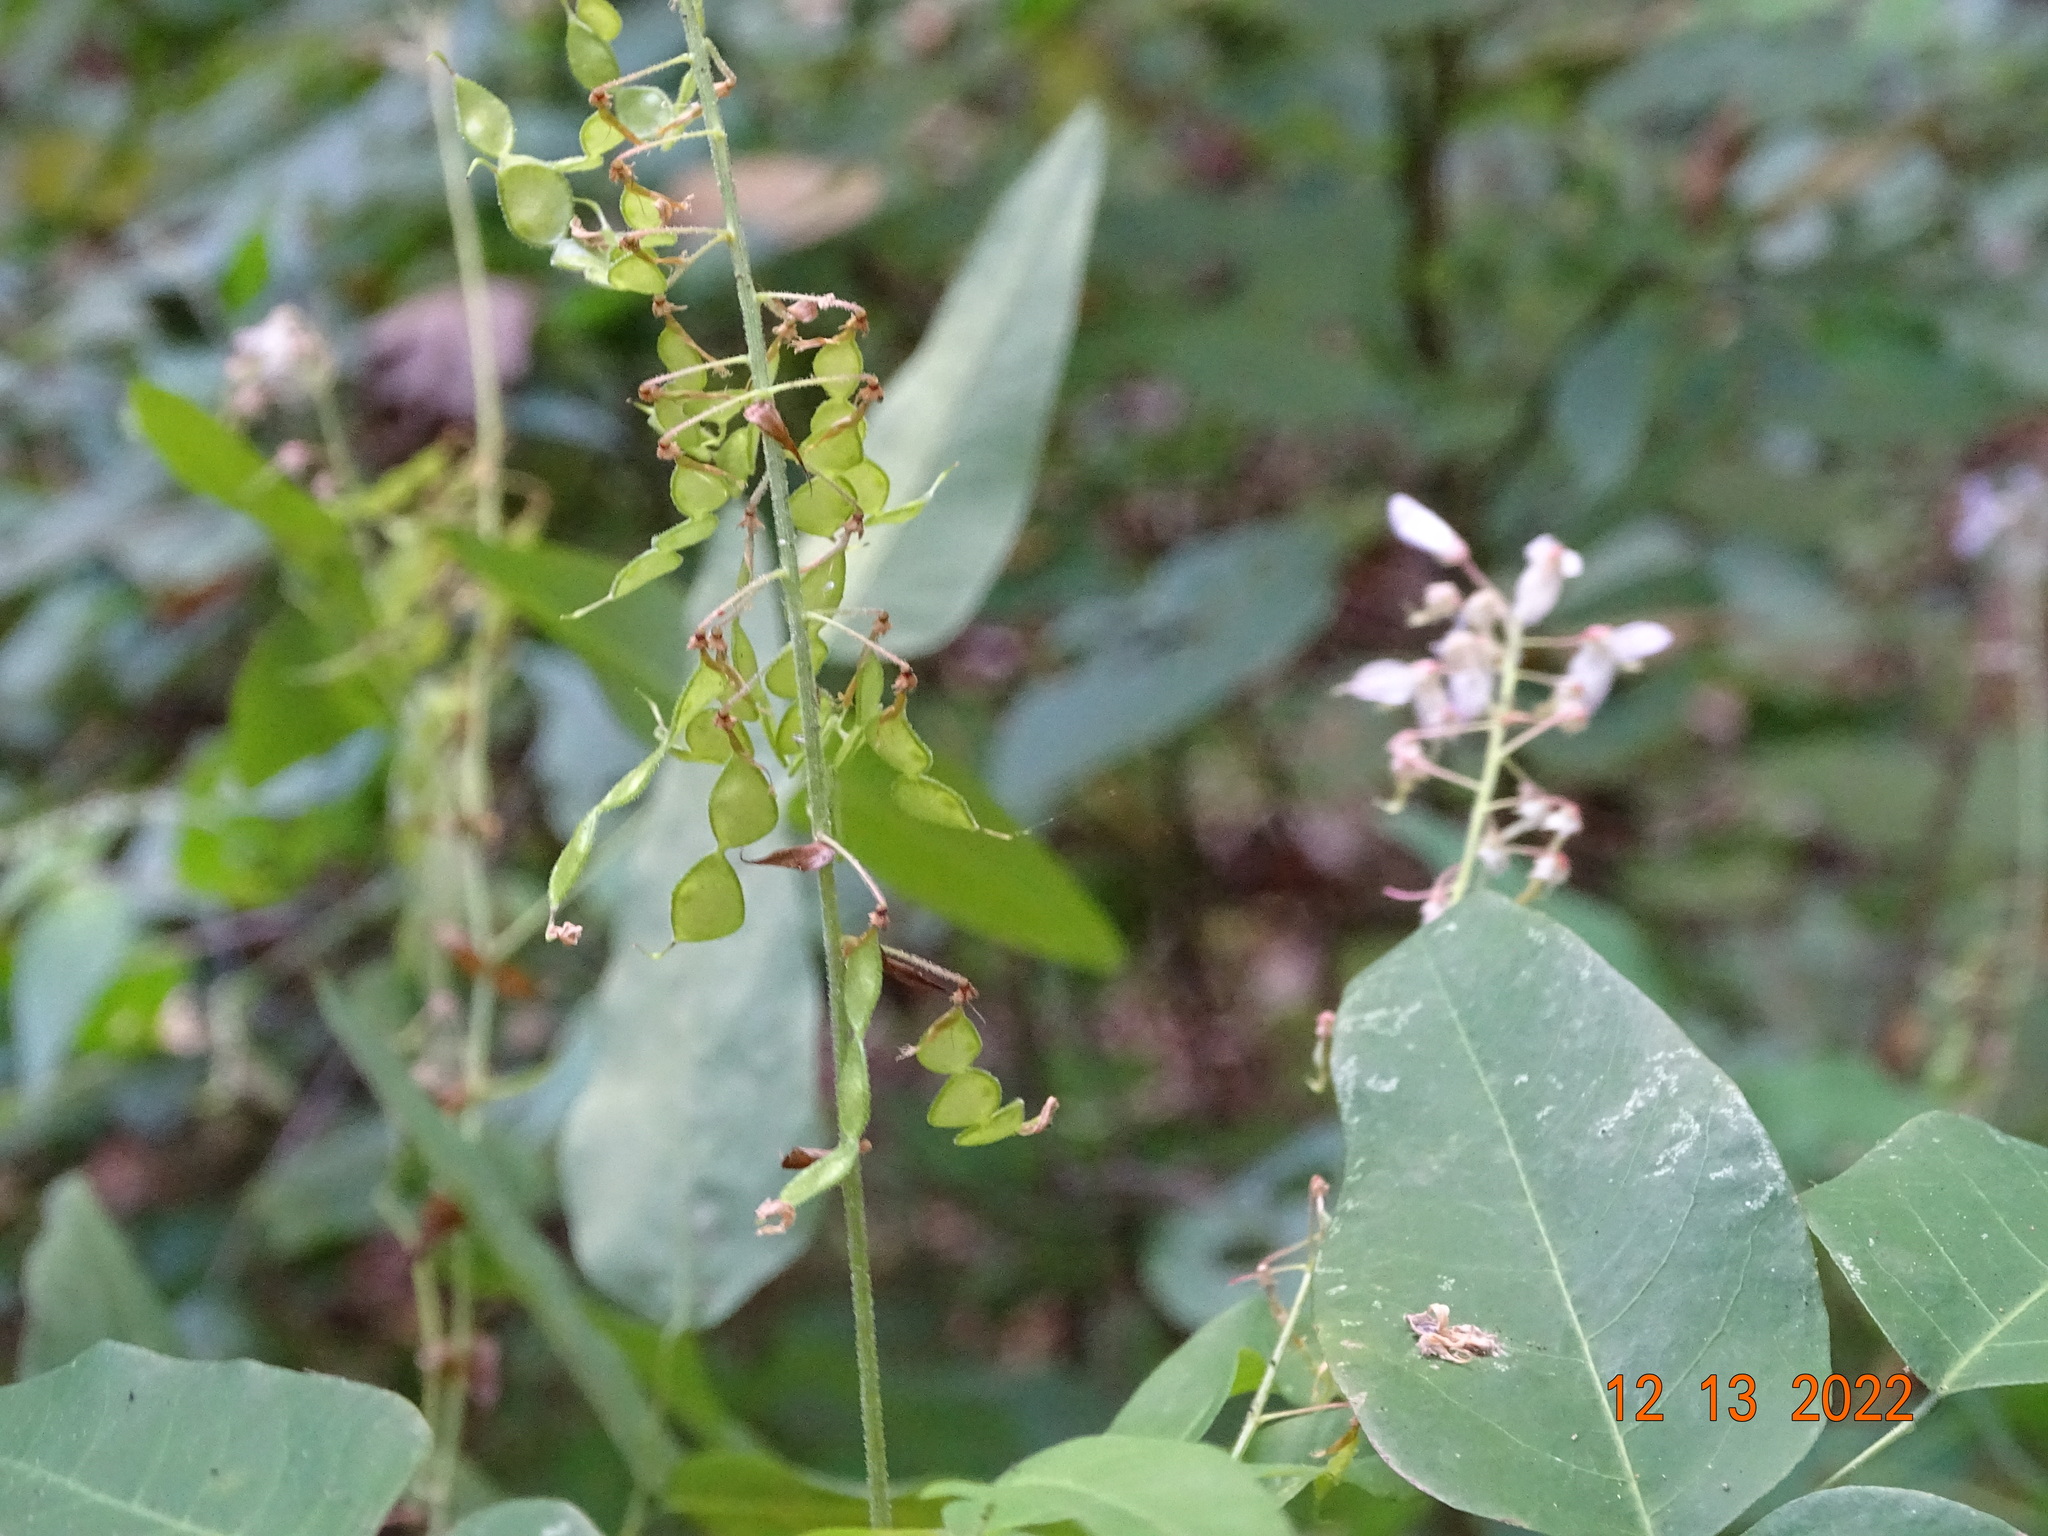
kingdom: Plantae
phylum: Tracheophyta
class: Magnoliopsida
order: Fabales
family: Fabaceae
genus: Desmodium
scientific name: Desmodium occidentale
